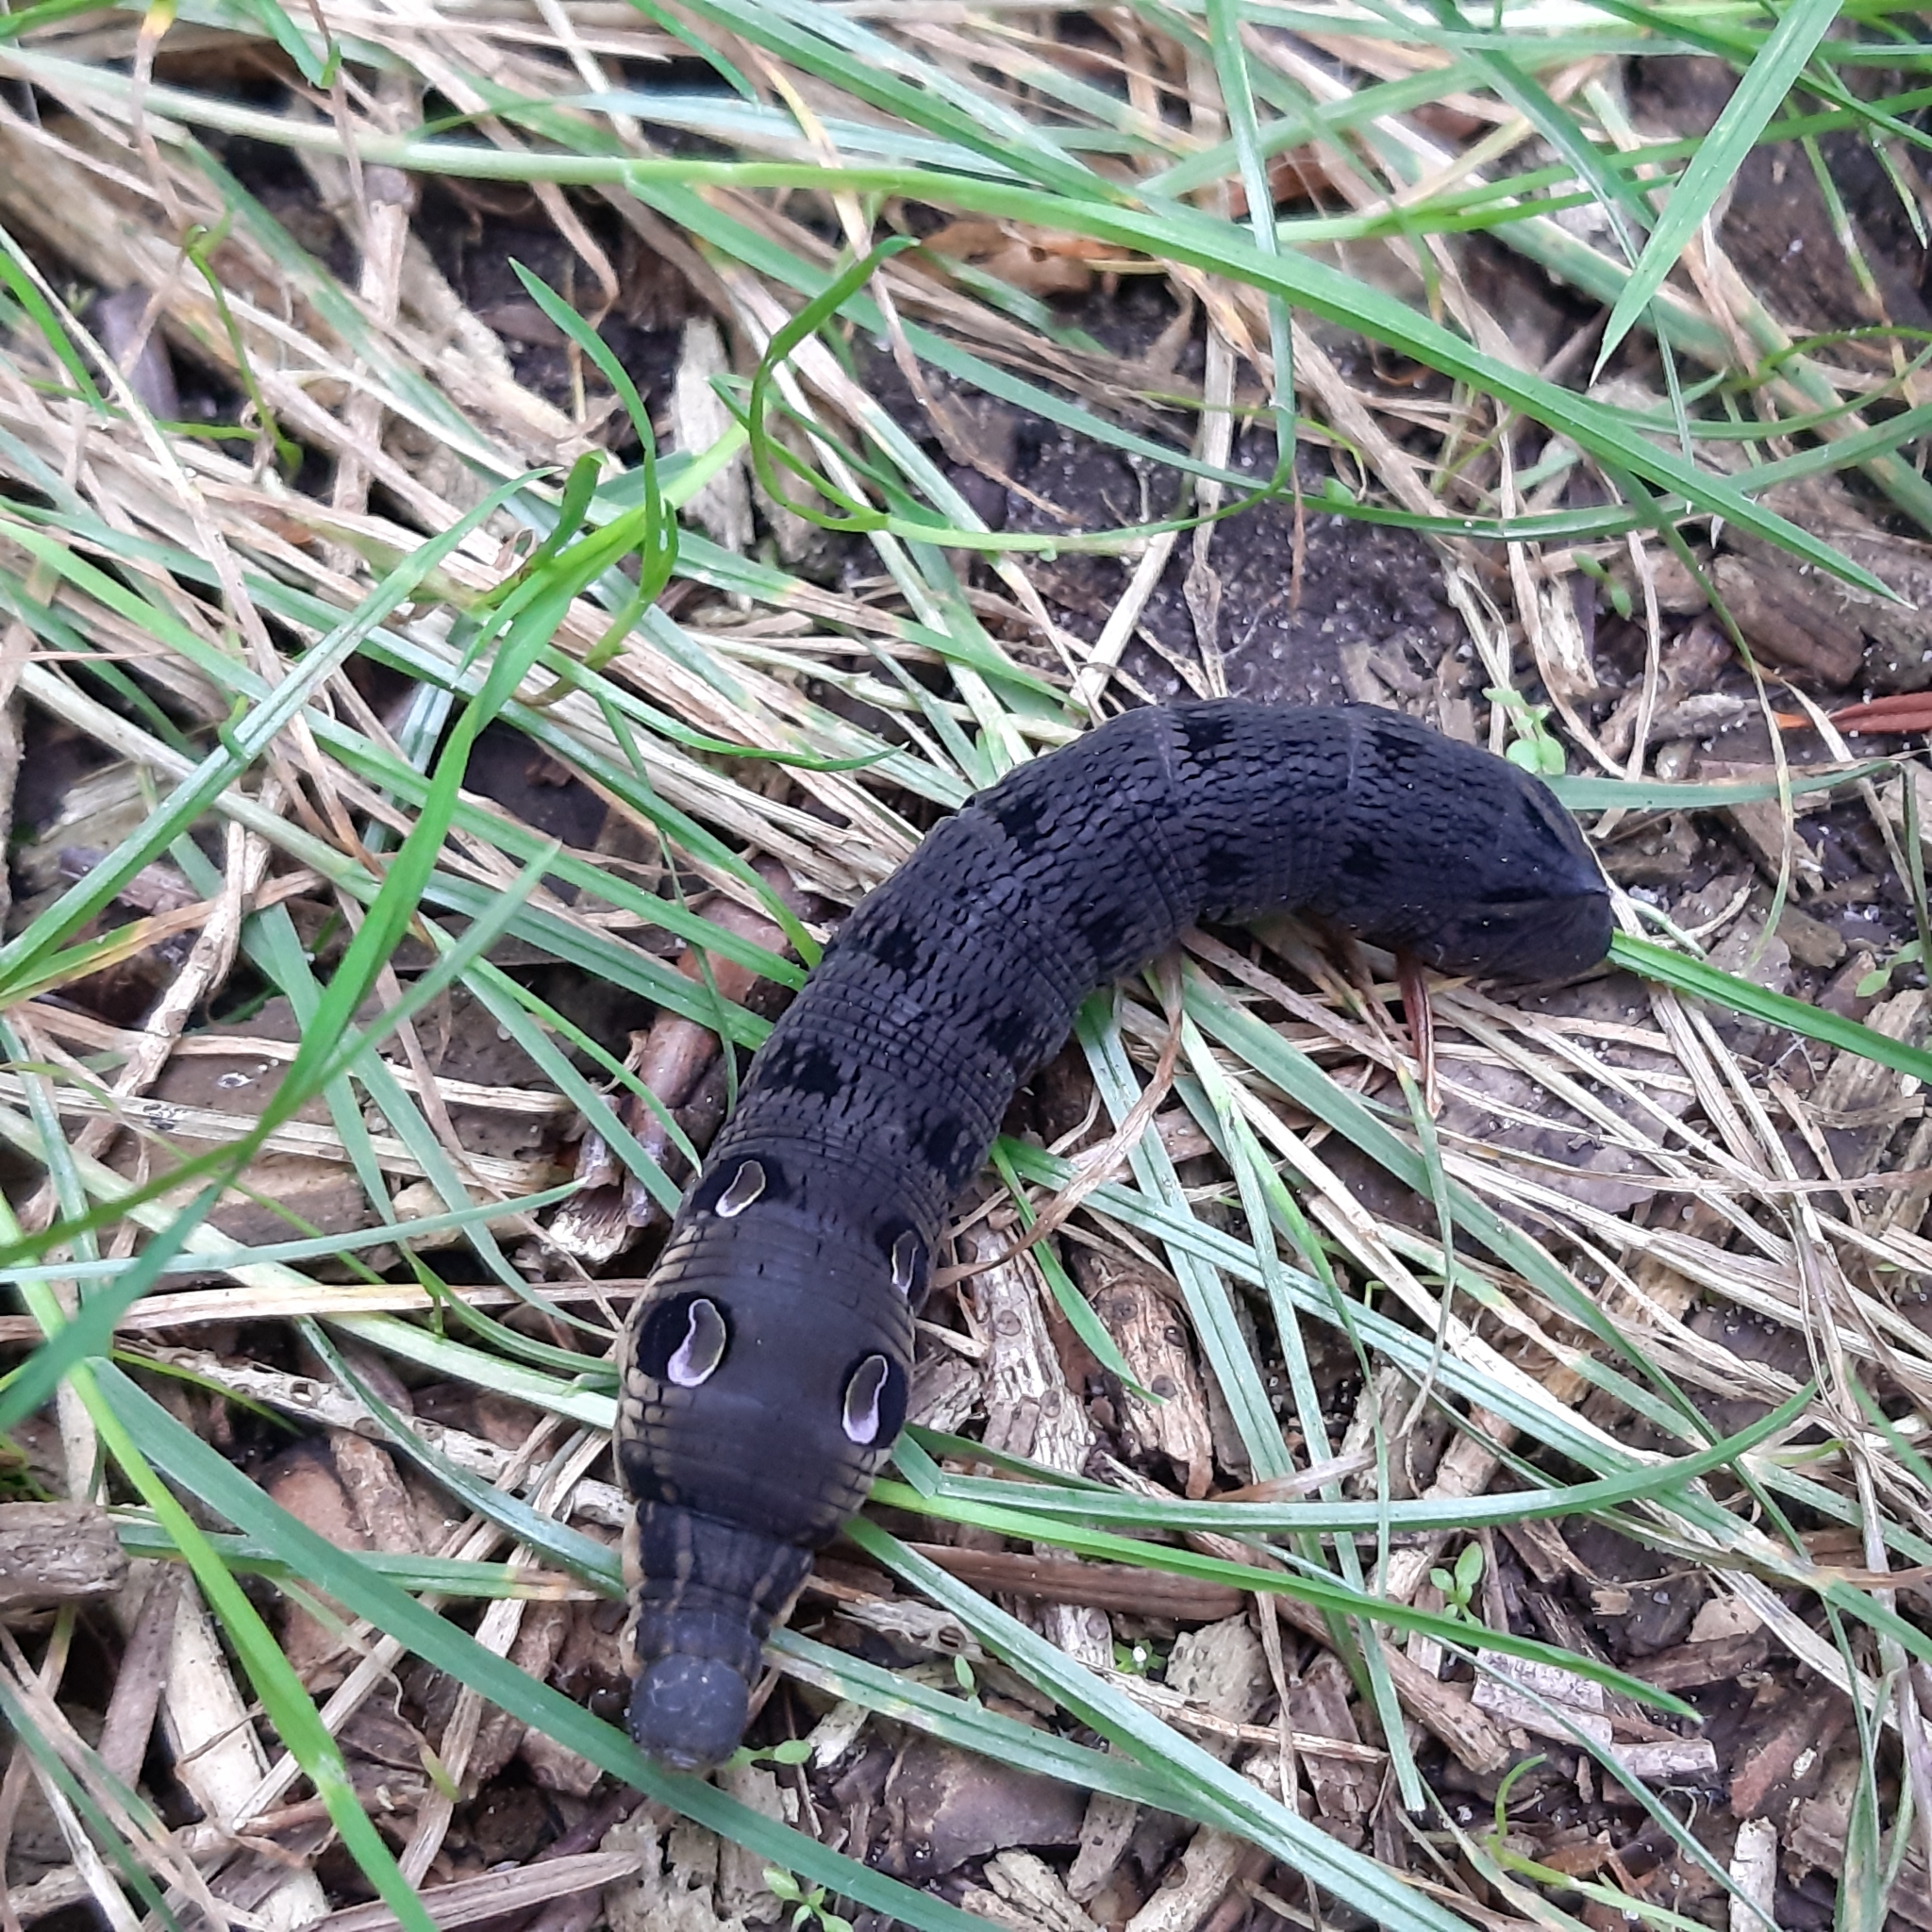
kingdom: Animalia
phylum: Arthropoda
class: Insecta
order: Lepidoptera
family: Sphingidae
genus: Deilephila
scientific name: Deilephila elpenor
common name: Elephant hawk-moth
